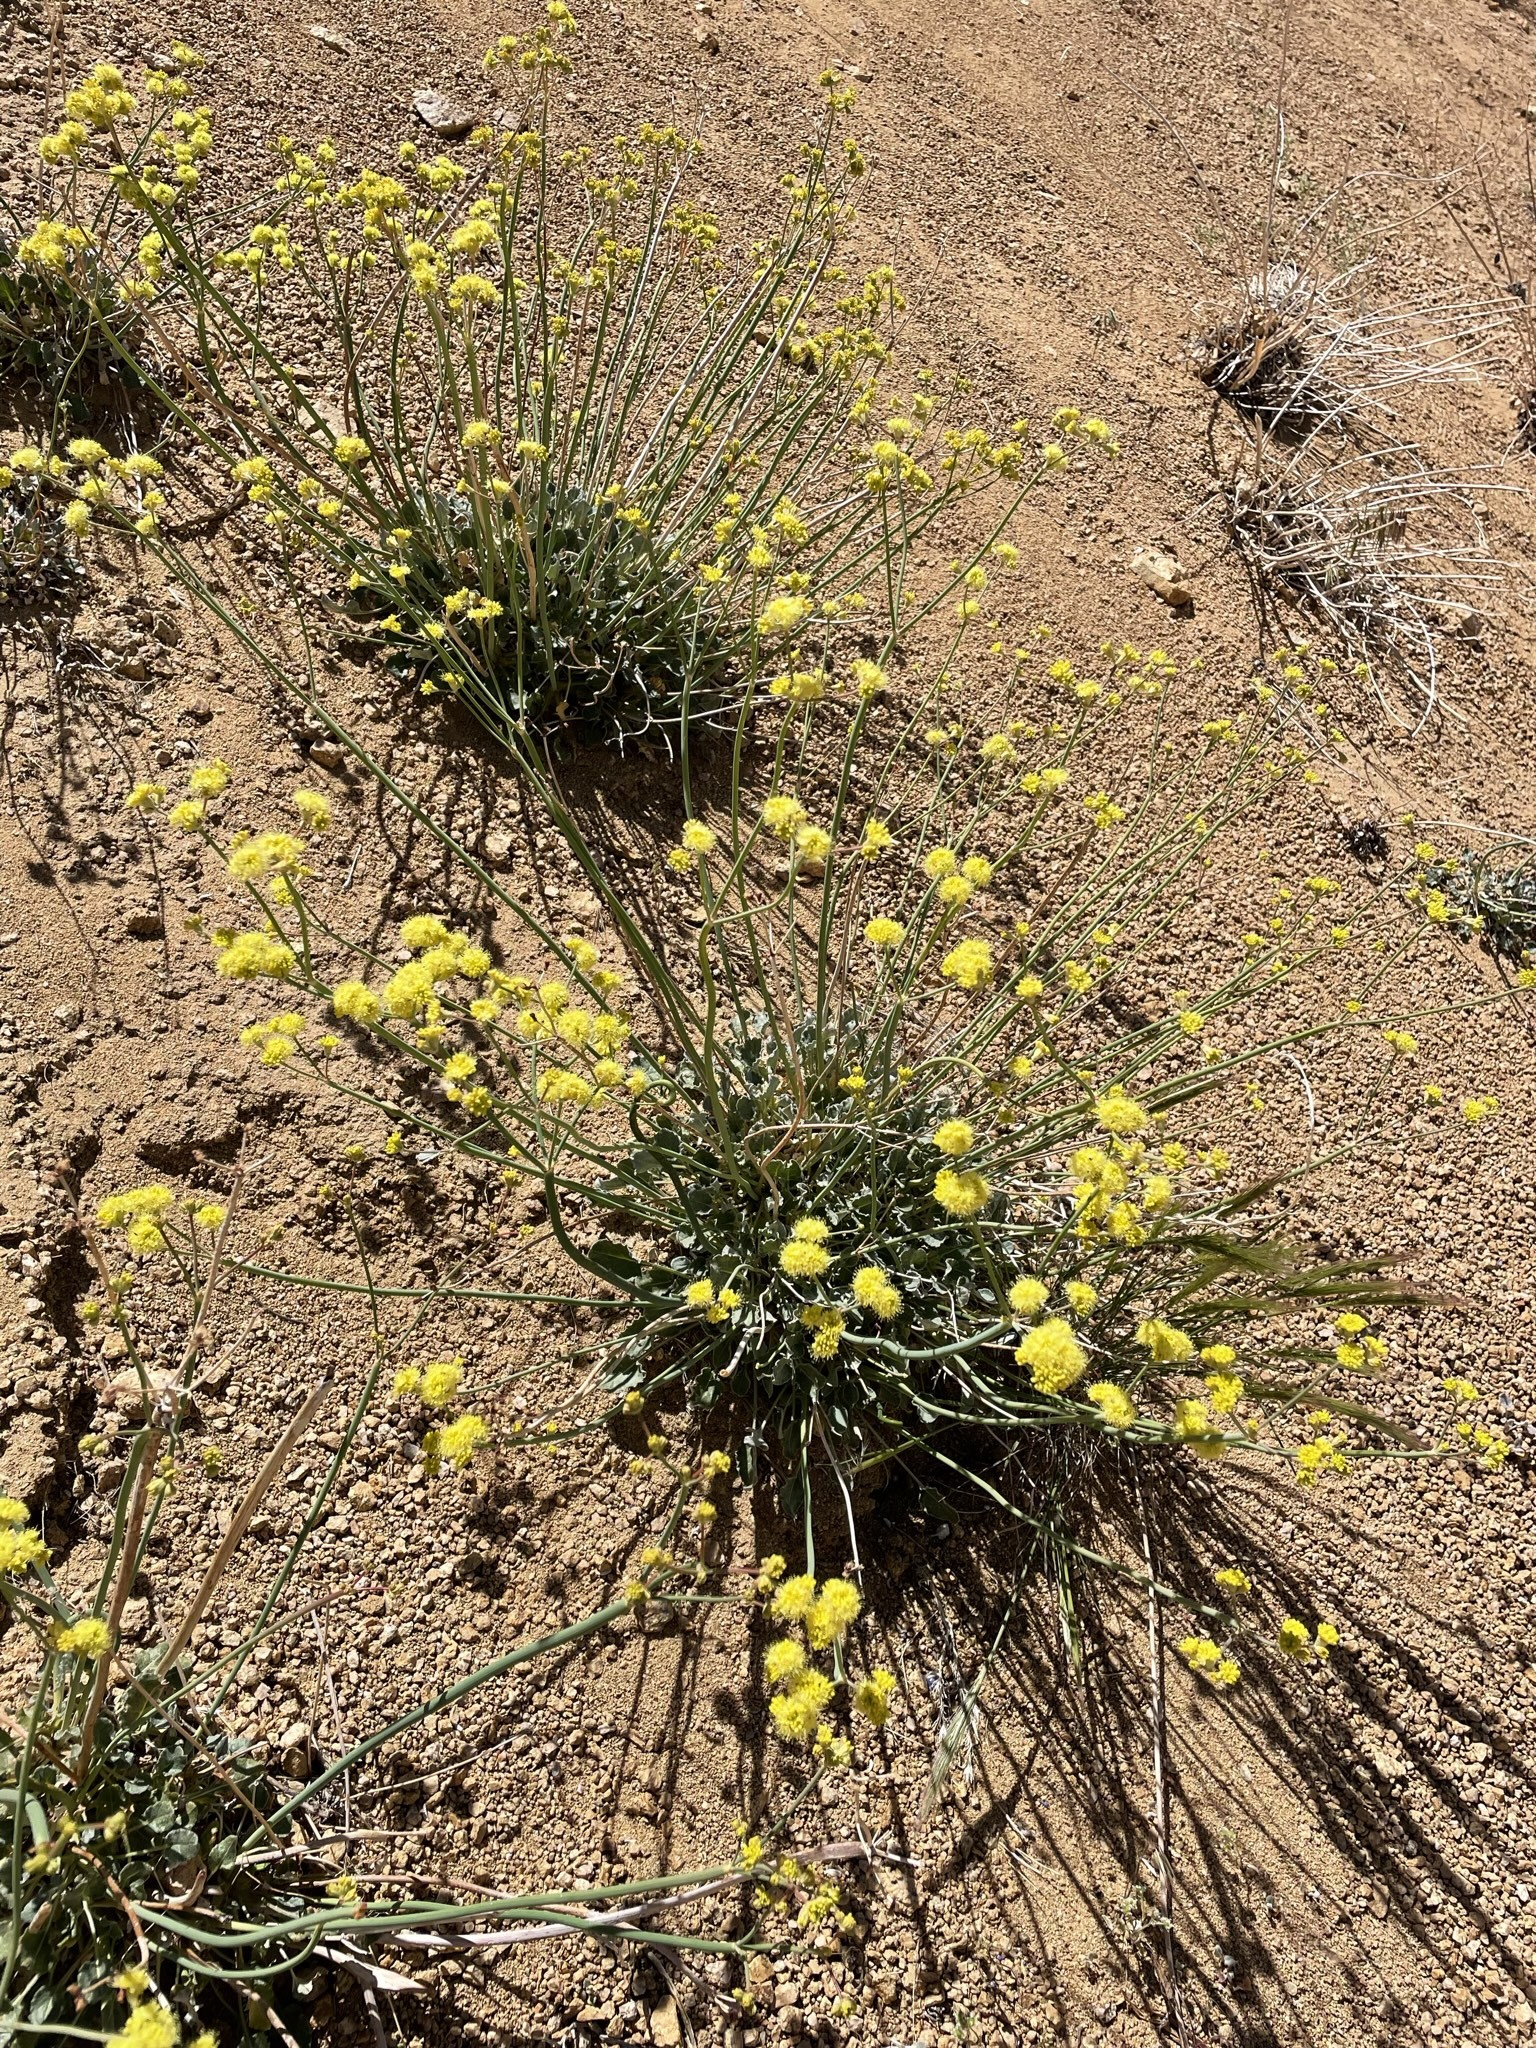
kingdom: Plantae
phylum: Tracheophyta
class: Magnoliopsida
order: Caryophyllales
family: Polygonaceae
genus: Eriogonum
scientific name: Eriogonum nudum
